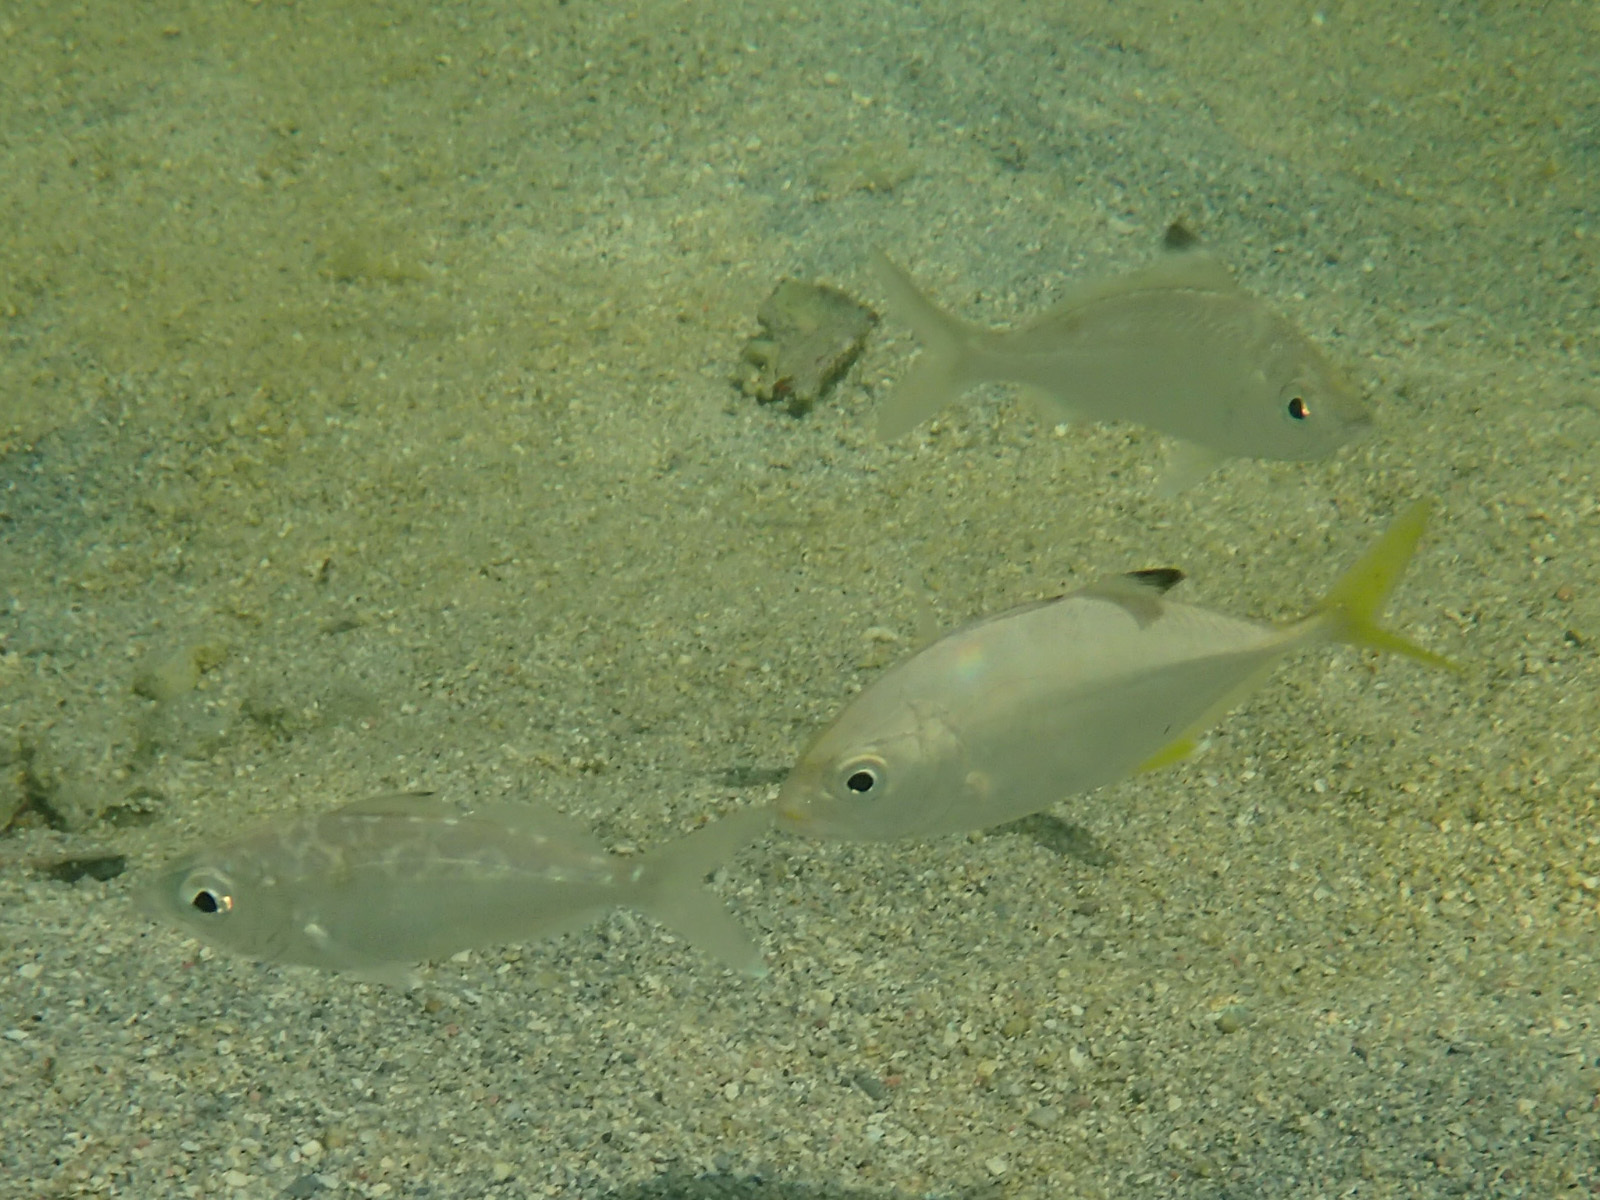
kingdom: Animalia
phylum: Chordata
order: Perciformes
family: Carangidae
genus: Caranx
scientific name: Caranx latus
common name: Horse eye jack
